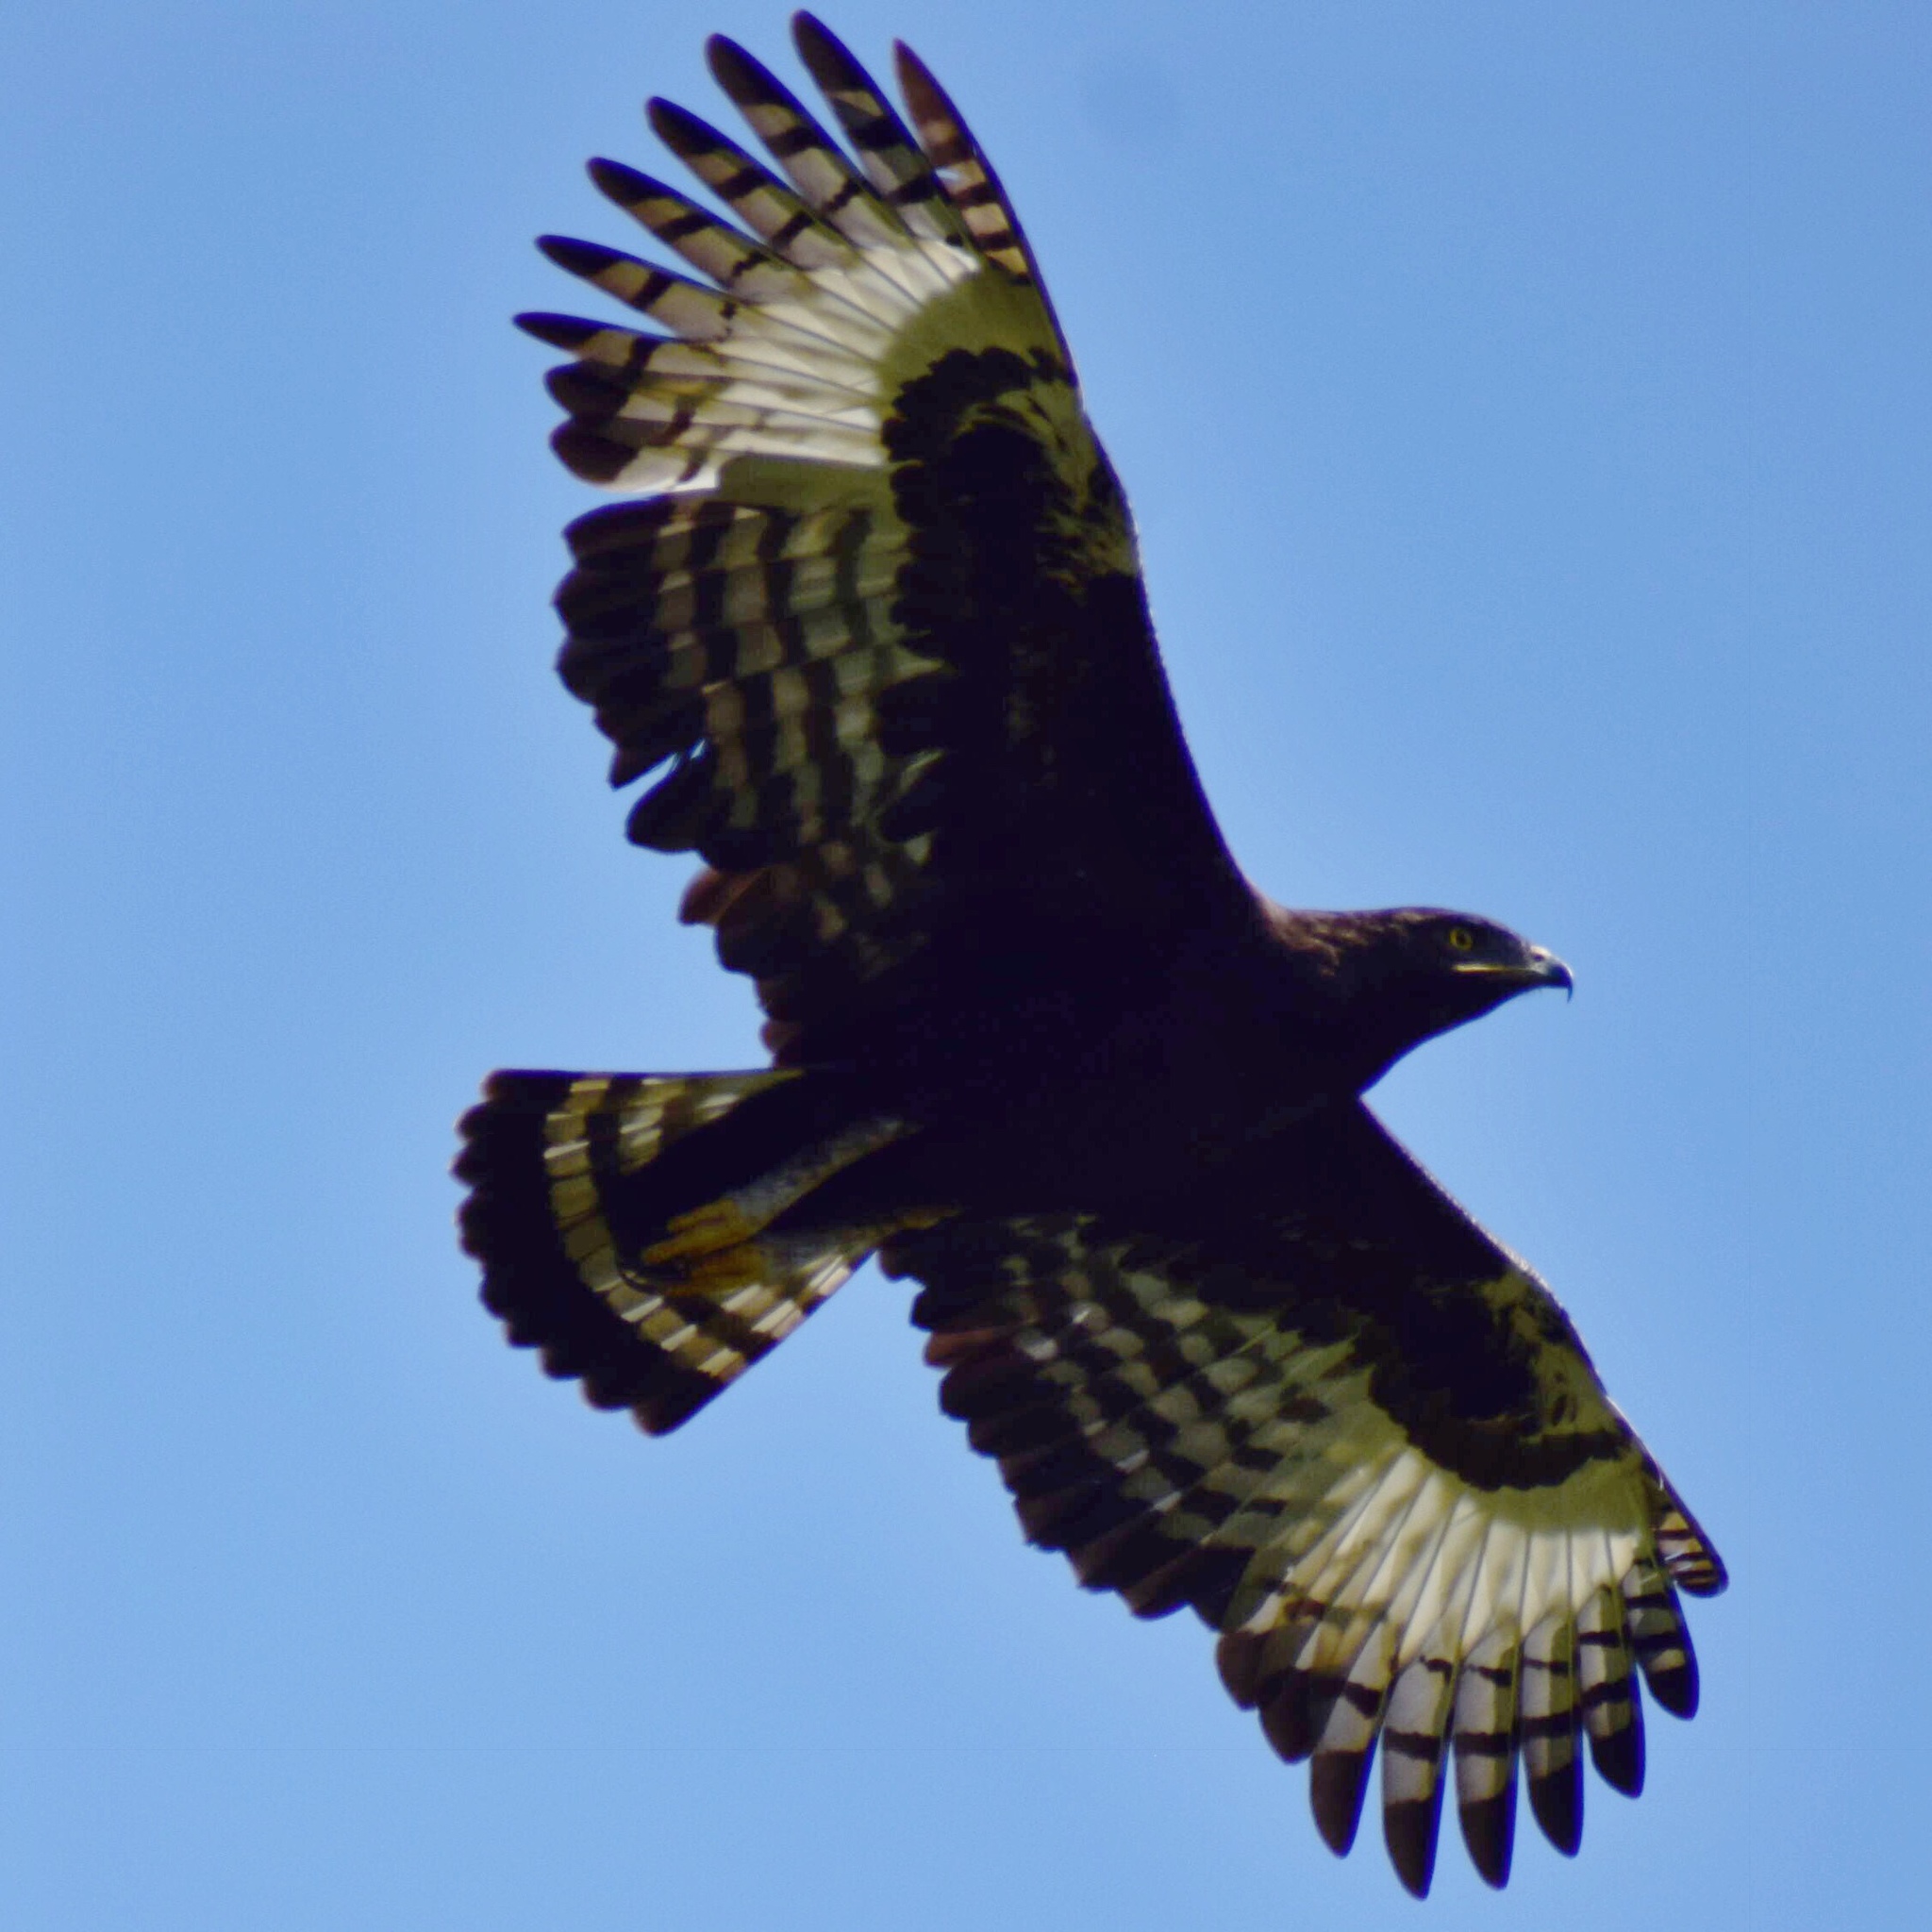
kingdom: Animalia
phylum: Chordata
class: Aves
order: Accipitriformes
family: Accipitridae
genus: Lophaetus
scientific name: Lophaetus occipitalis
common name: Long-crested eagle
